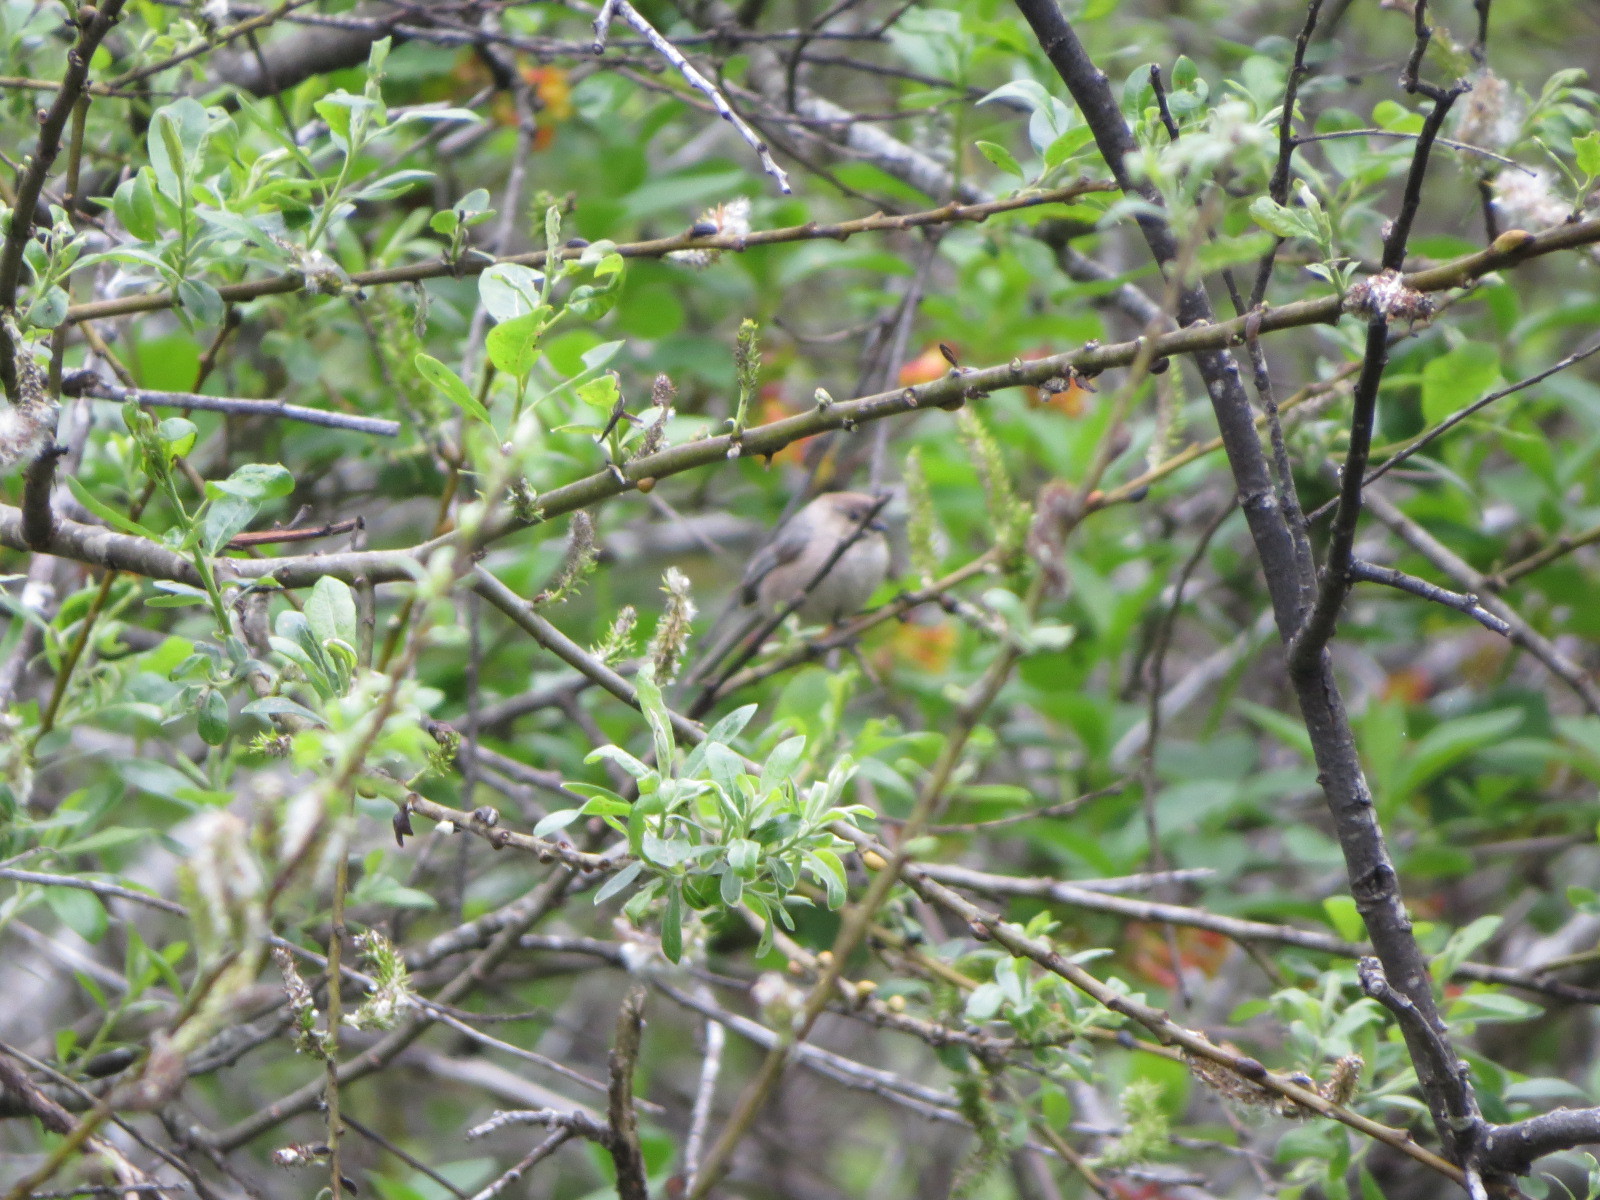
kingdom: Animalia
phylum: Chordata
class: Aves
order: Passeriformes
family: Aegithalidae
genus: Psaltriparus
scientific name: Psaltriparus minimus
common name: American bushtit
